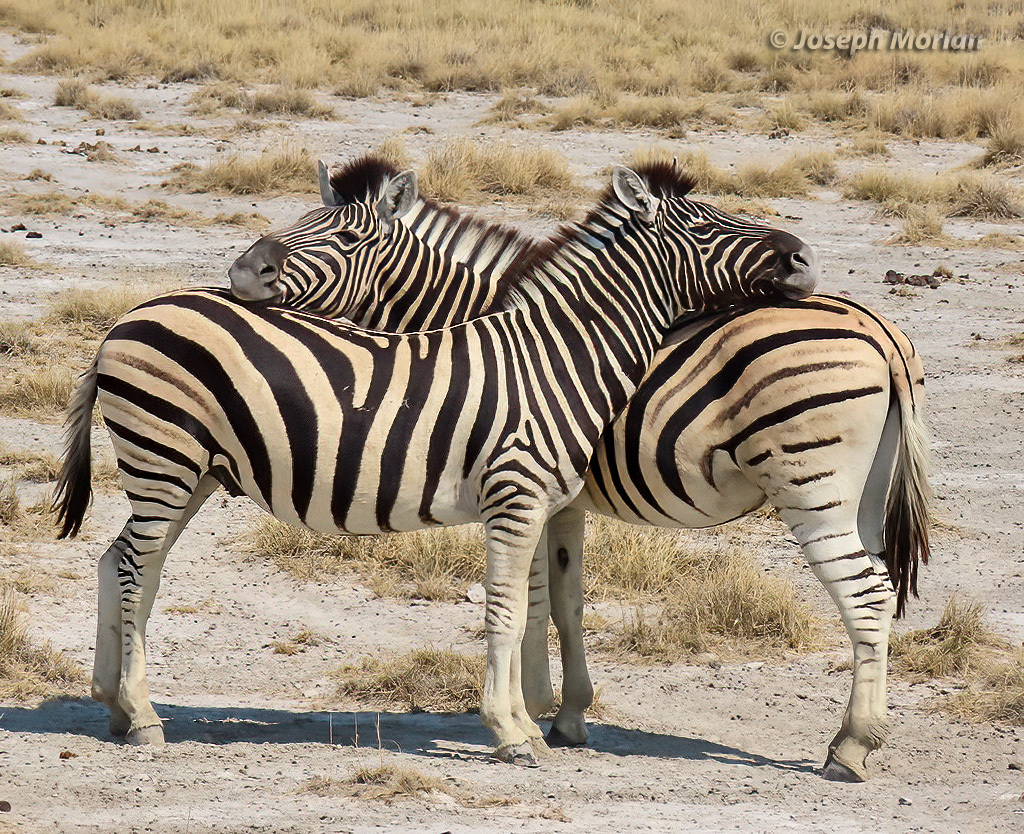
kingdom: Animalia
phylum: Chordata
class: Mammalia
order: Perissodactyla
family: Equidae
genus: Equus
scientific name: Equus quagga
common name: Plains zebra
